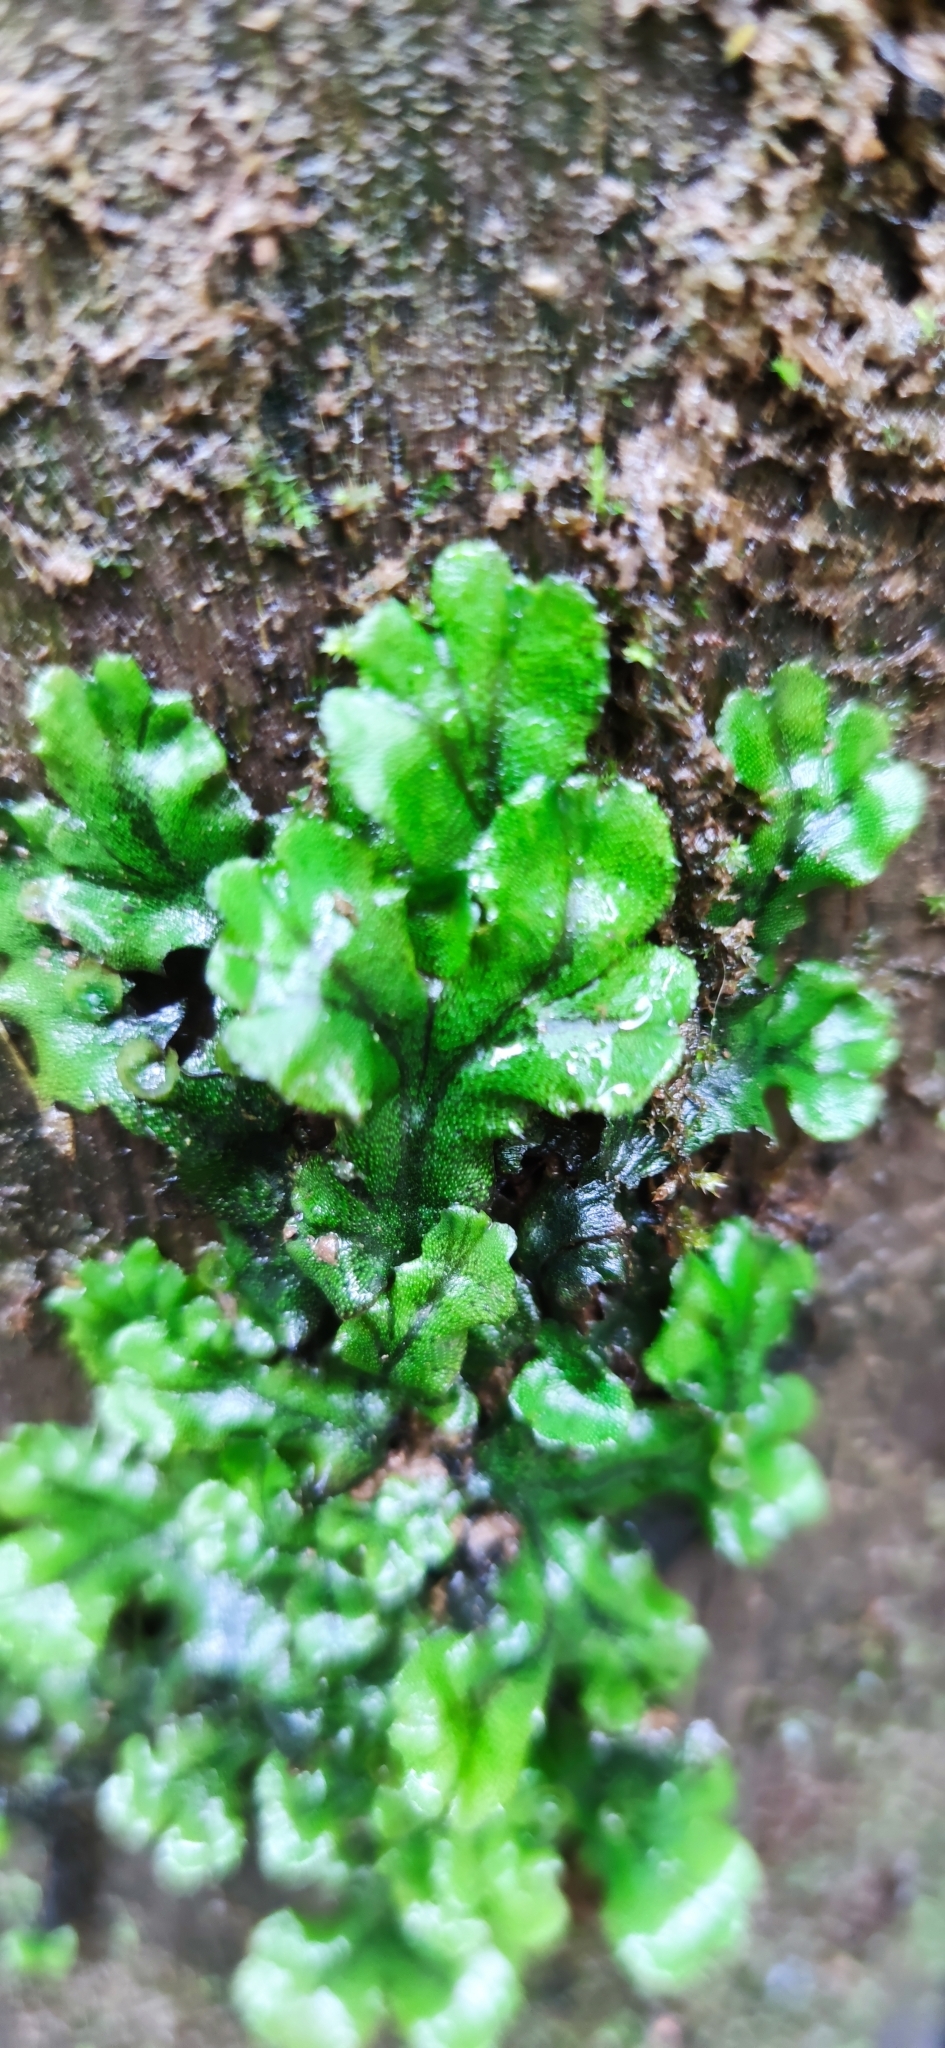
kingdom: Plantae
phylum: Marchantiophyta
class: Marchantiopsida
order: Marchantiales
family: Marchantiaceae
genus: Marchantia
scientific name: Marchantia polymorpha
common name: Common liverwort
